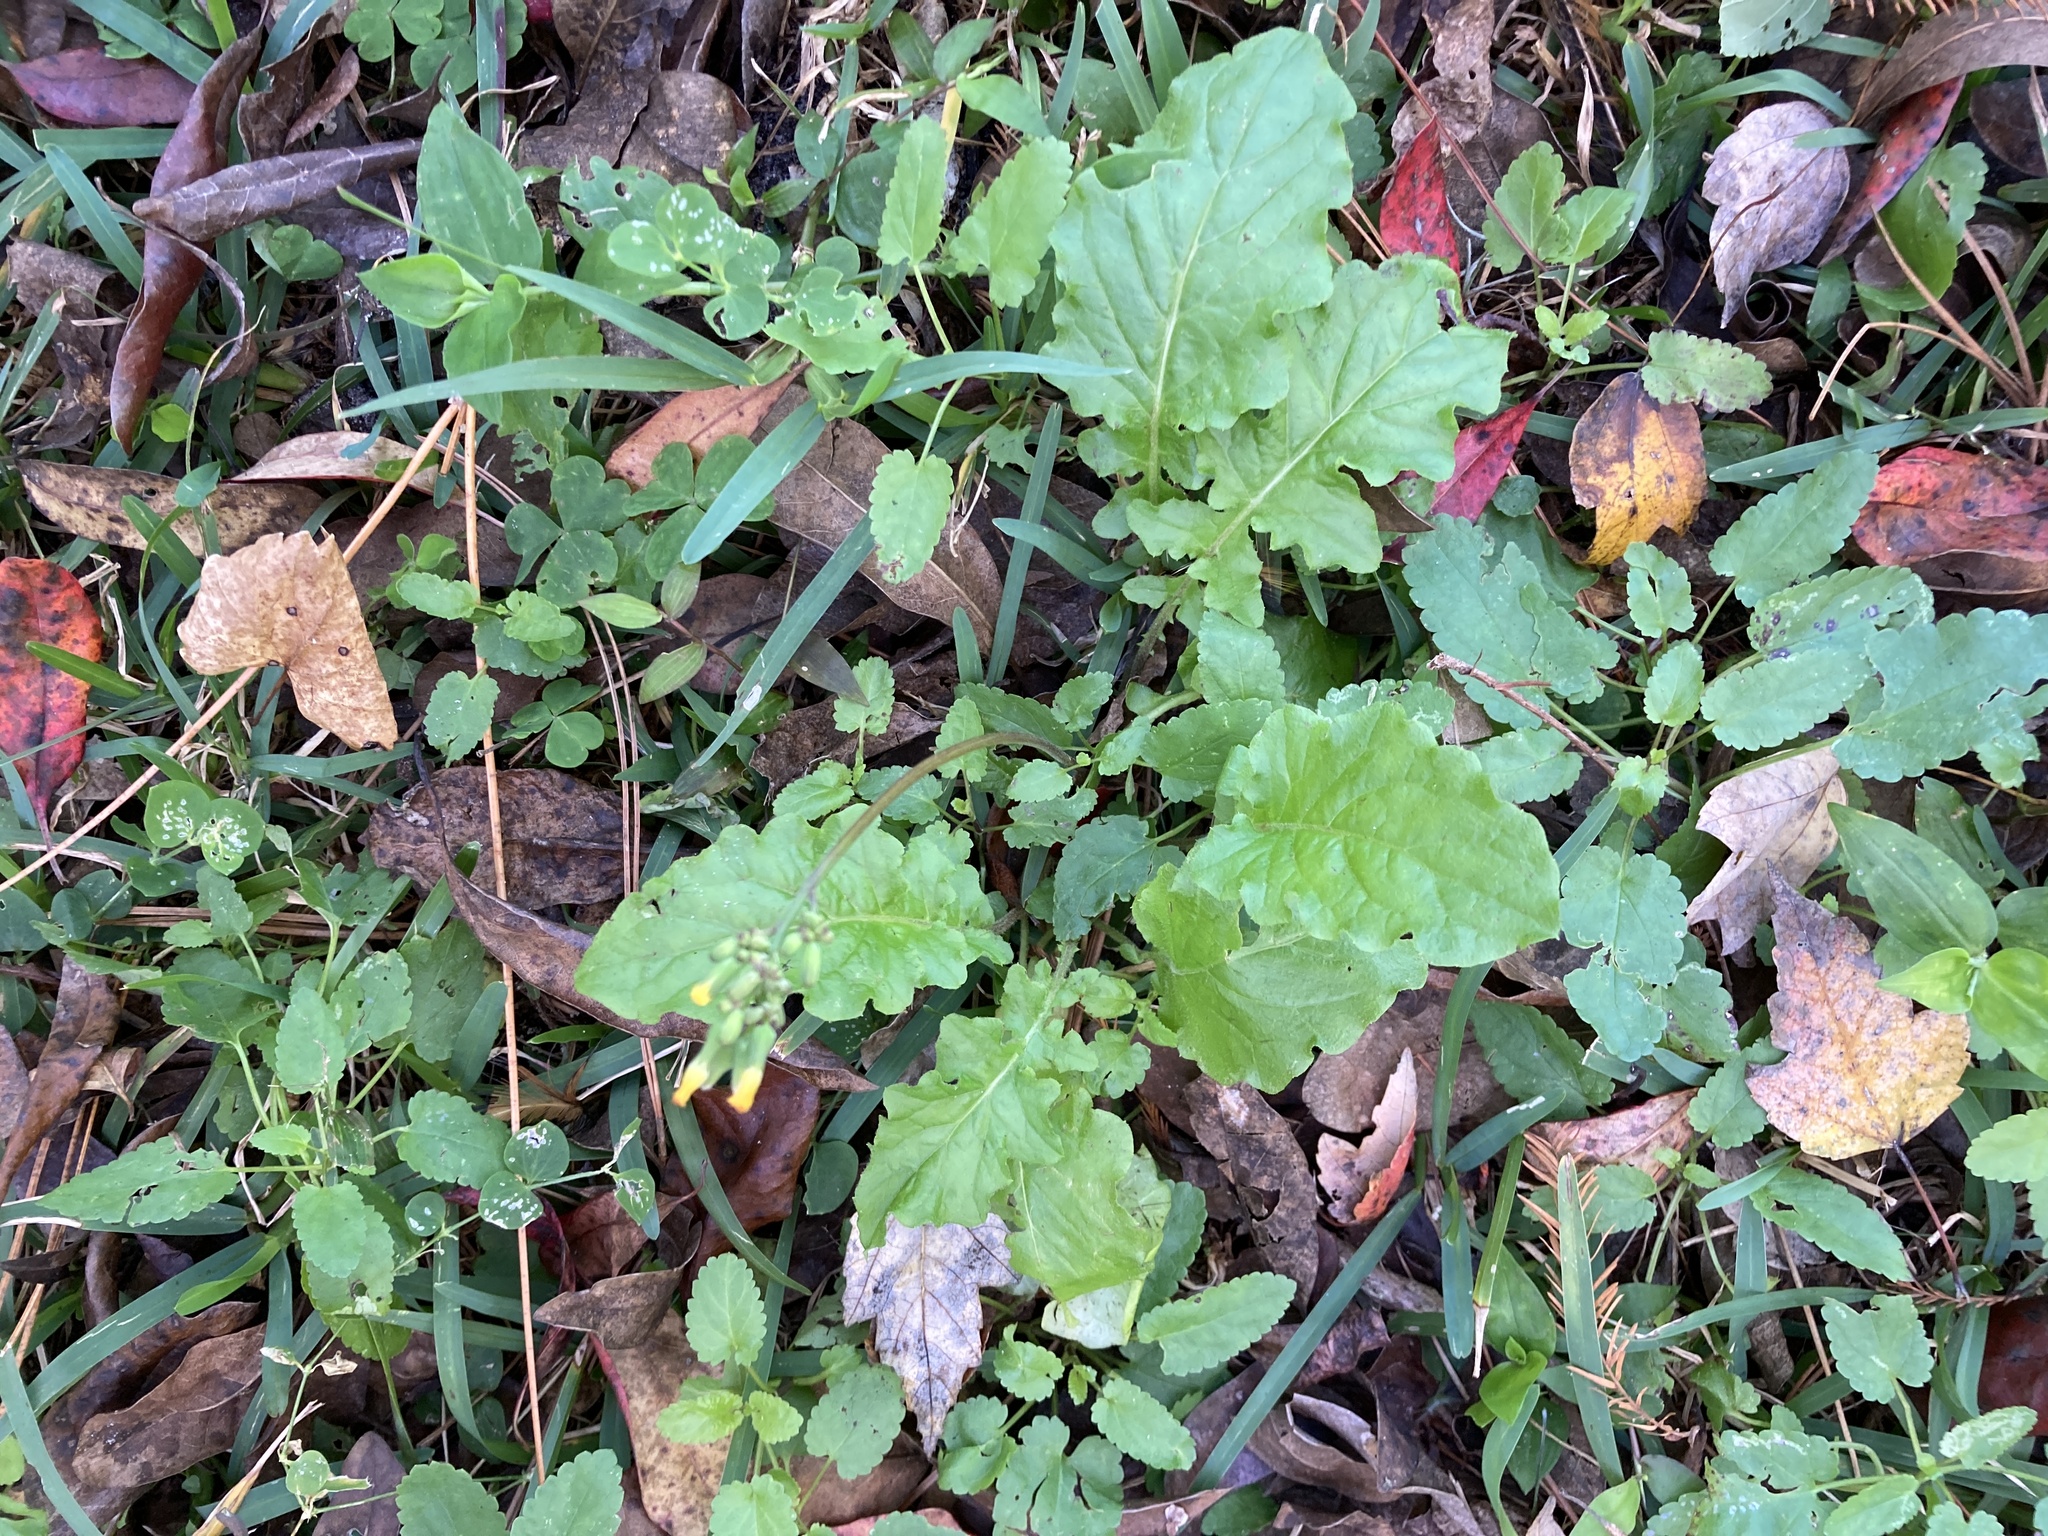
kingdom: Plantae
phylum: Tracheophyta
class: Magnoliopsida
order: Asterales
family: Asteraceae
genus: Youngia
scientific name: Youngia japonica
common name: Oriental false hawksbeard
